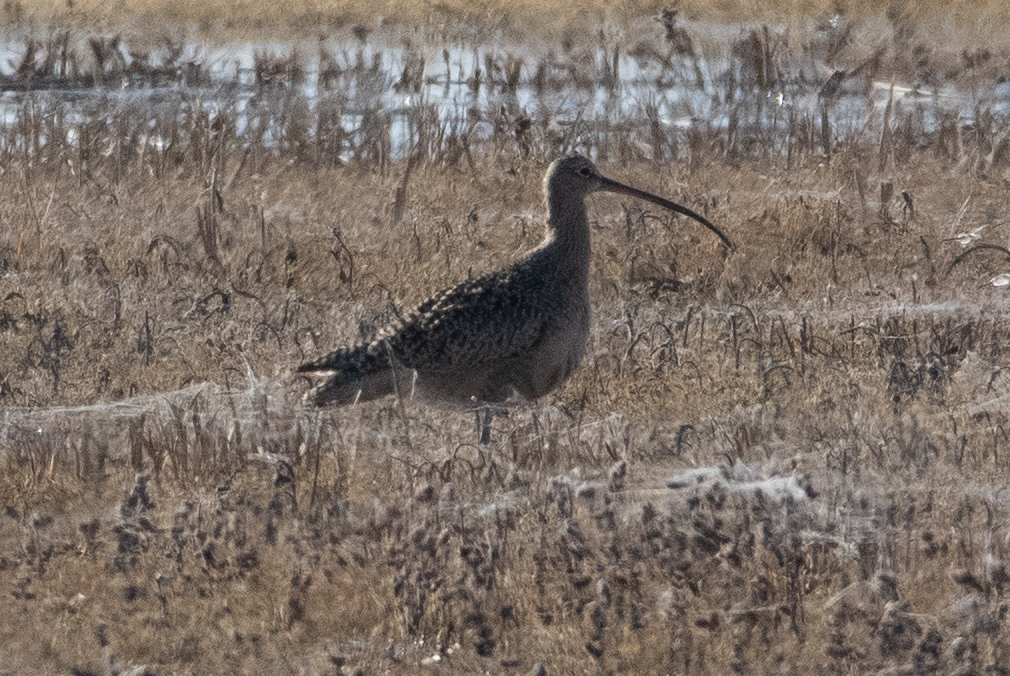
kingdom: Animalia
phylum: Chordata
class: Aves
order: Charadriiformes
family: Scolopacidae
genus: Numenius
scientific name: Numenius americanus
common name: Long-billed curlew
